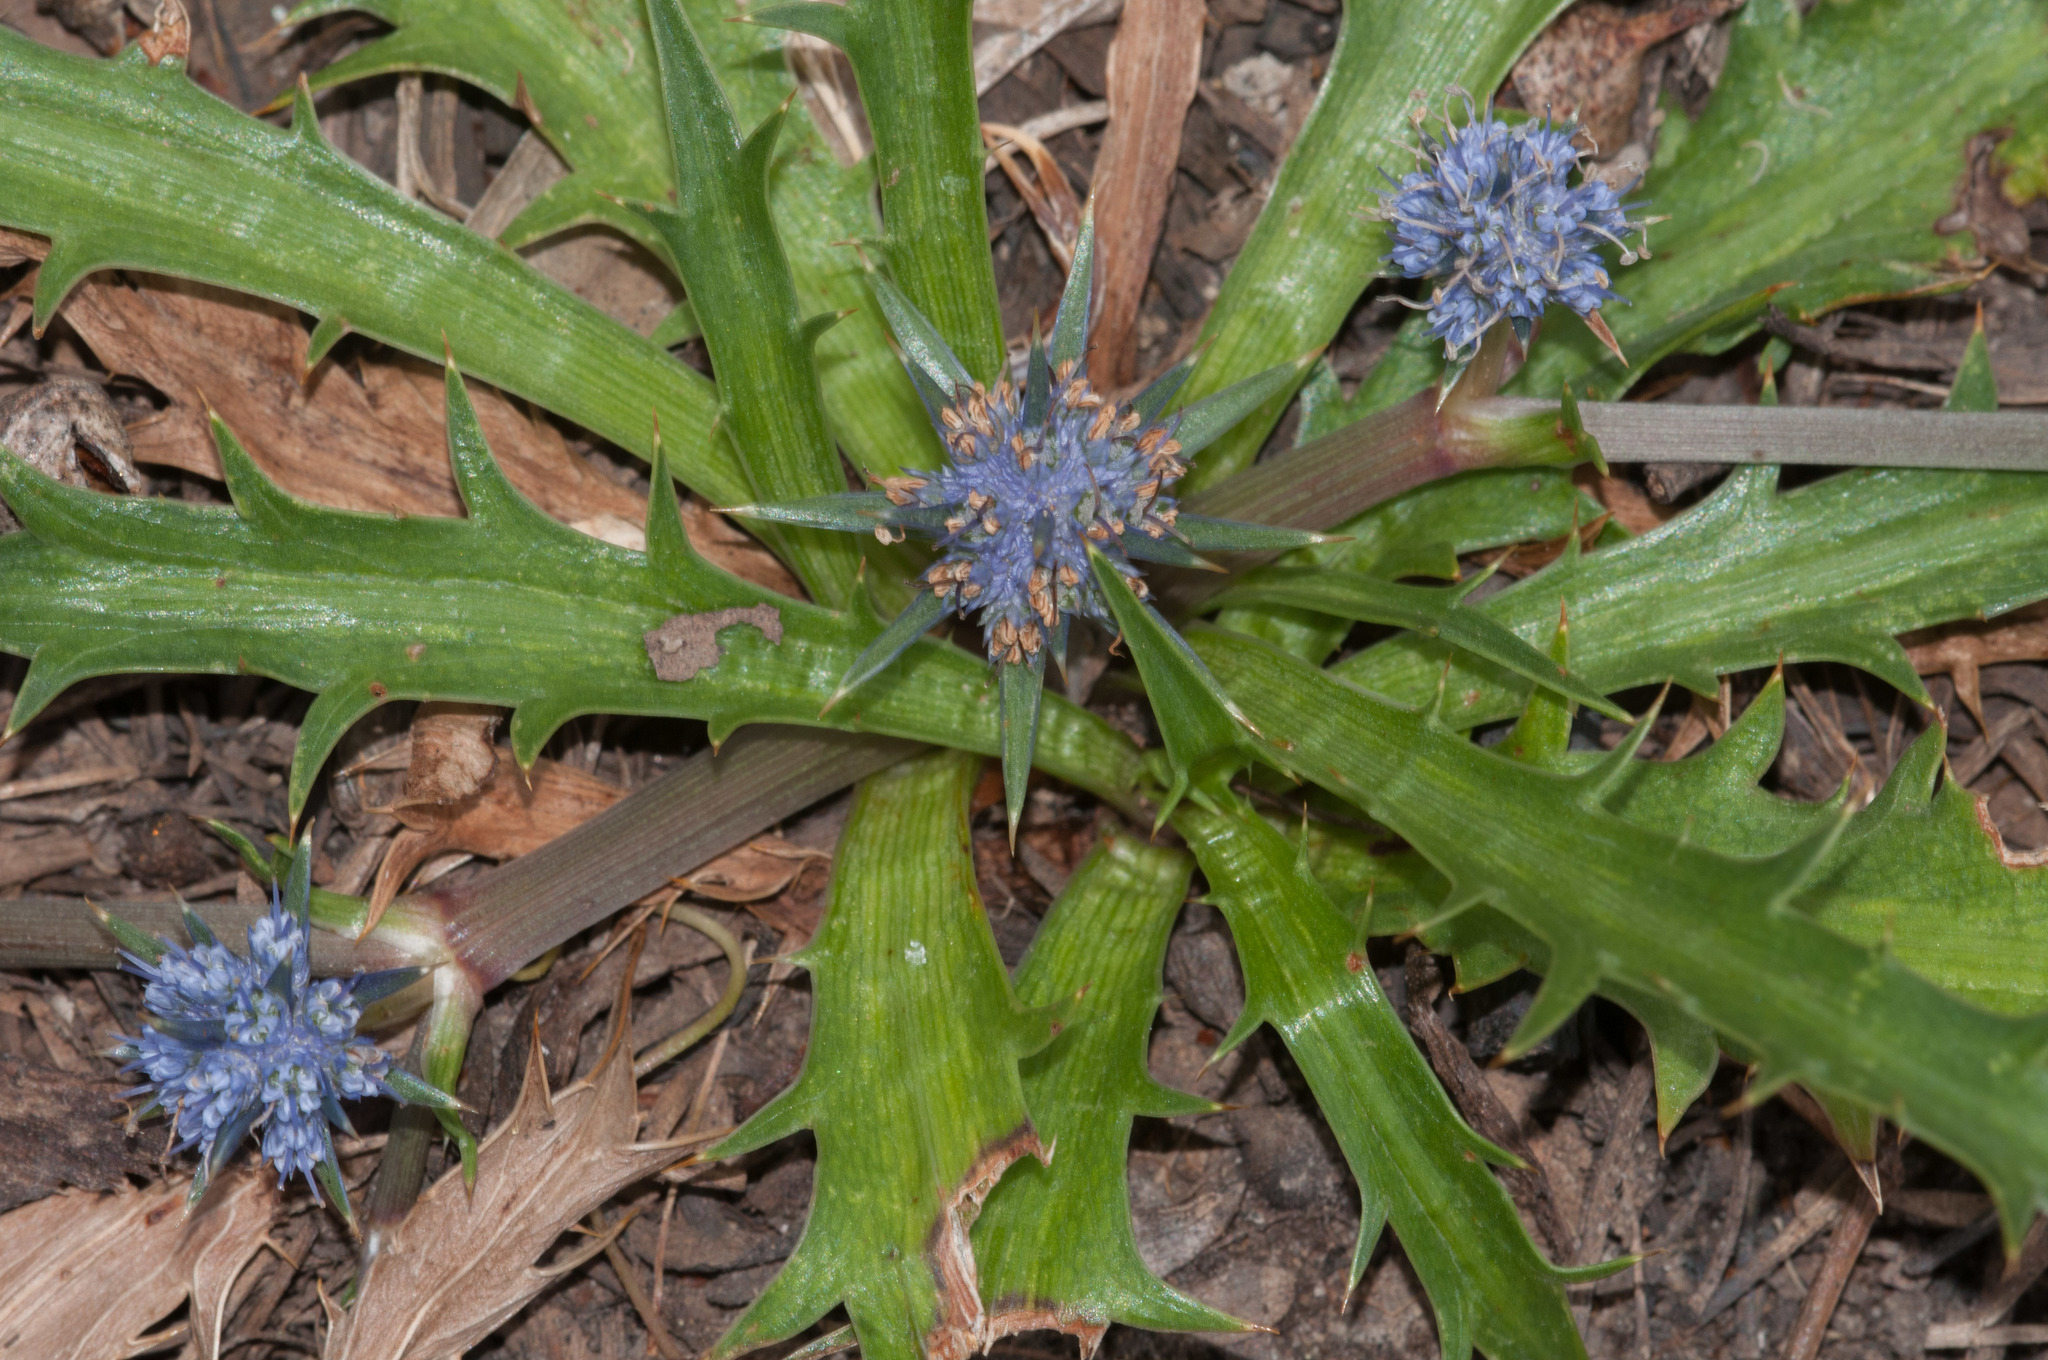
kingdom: Plantae
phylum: Tracheophyta
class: Magnoliopsida
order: Apiales
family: Apiaceae
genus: Eryngium
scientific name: Eryngium vesiculosum
